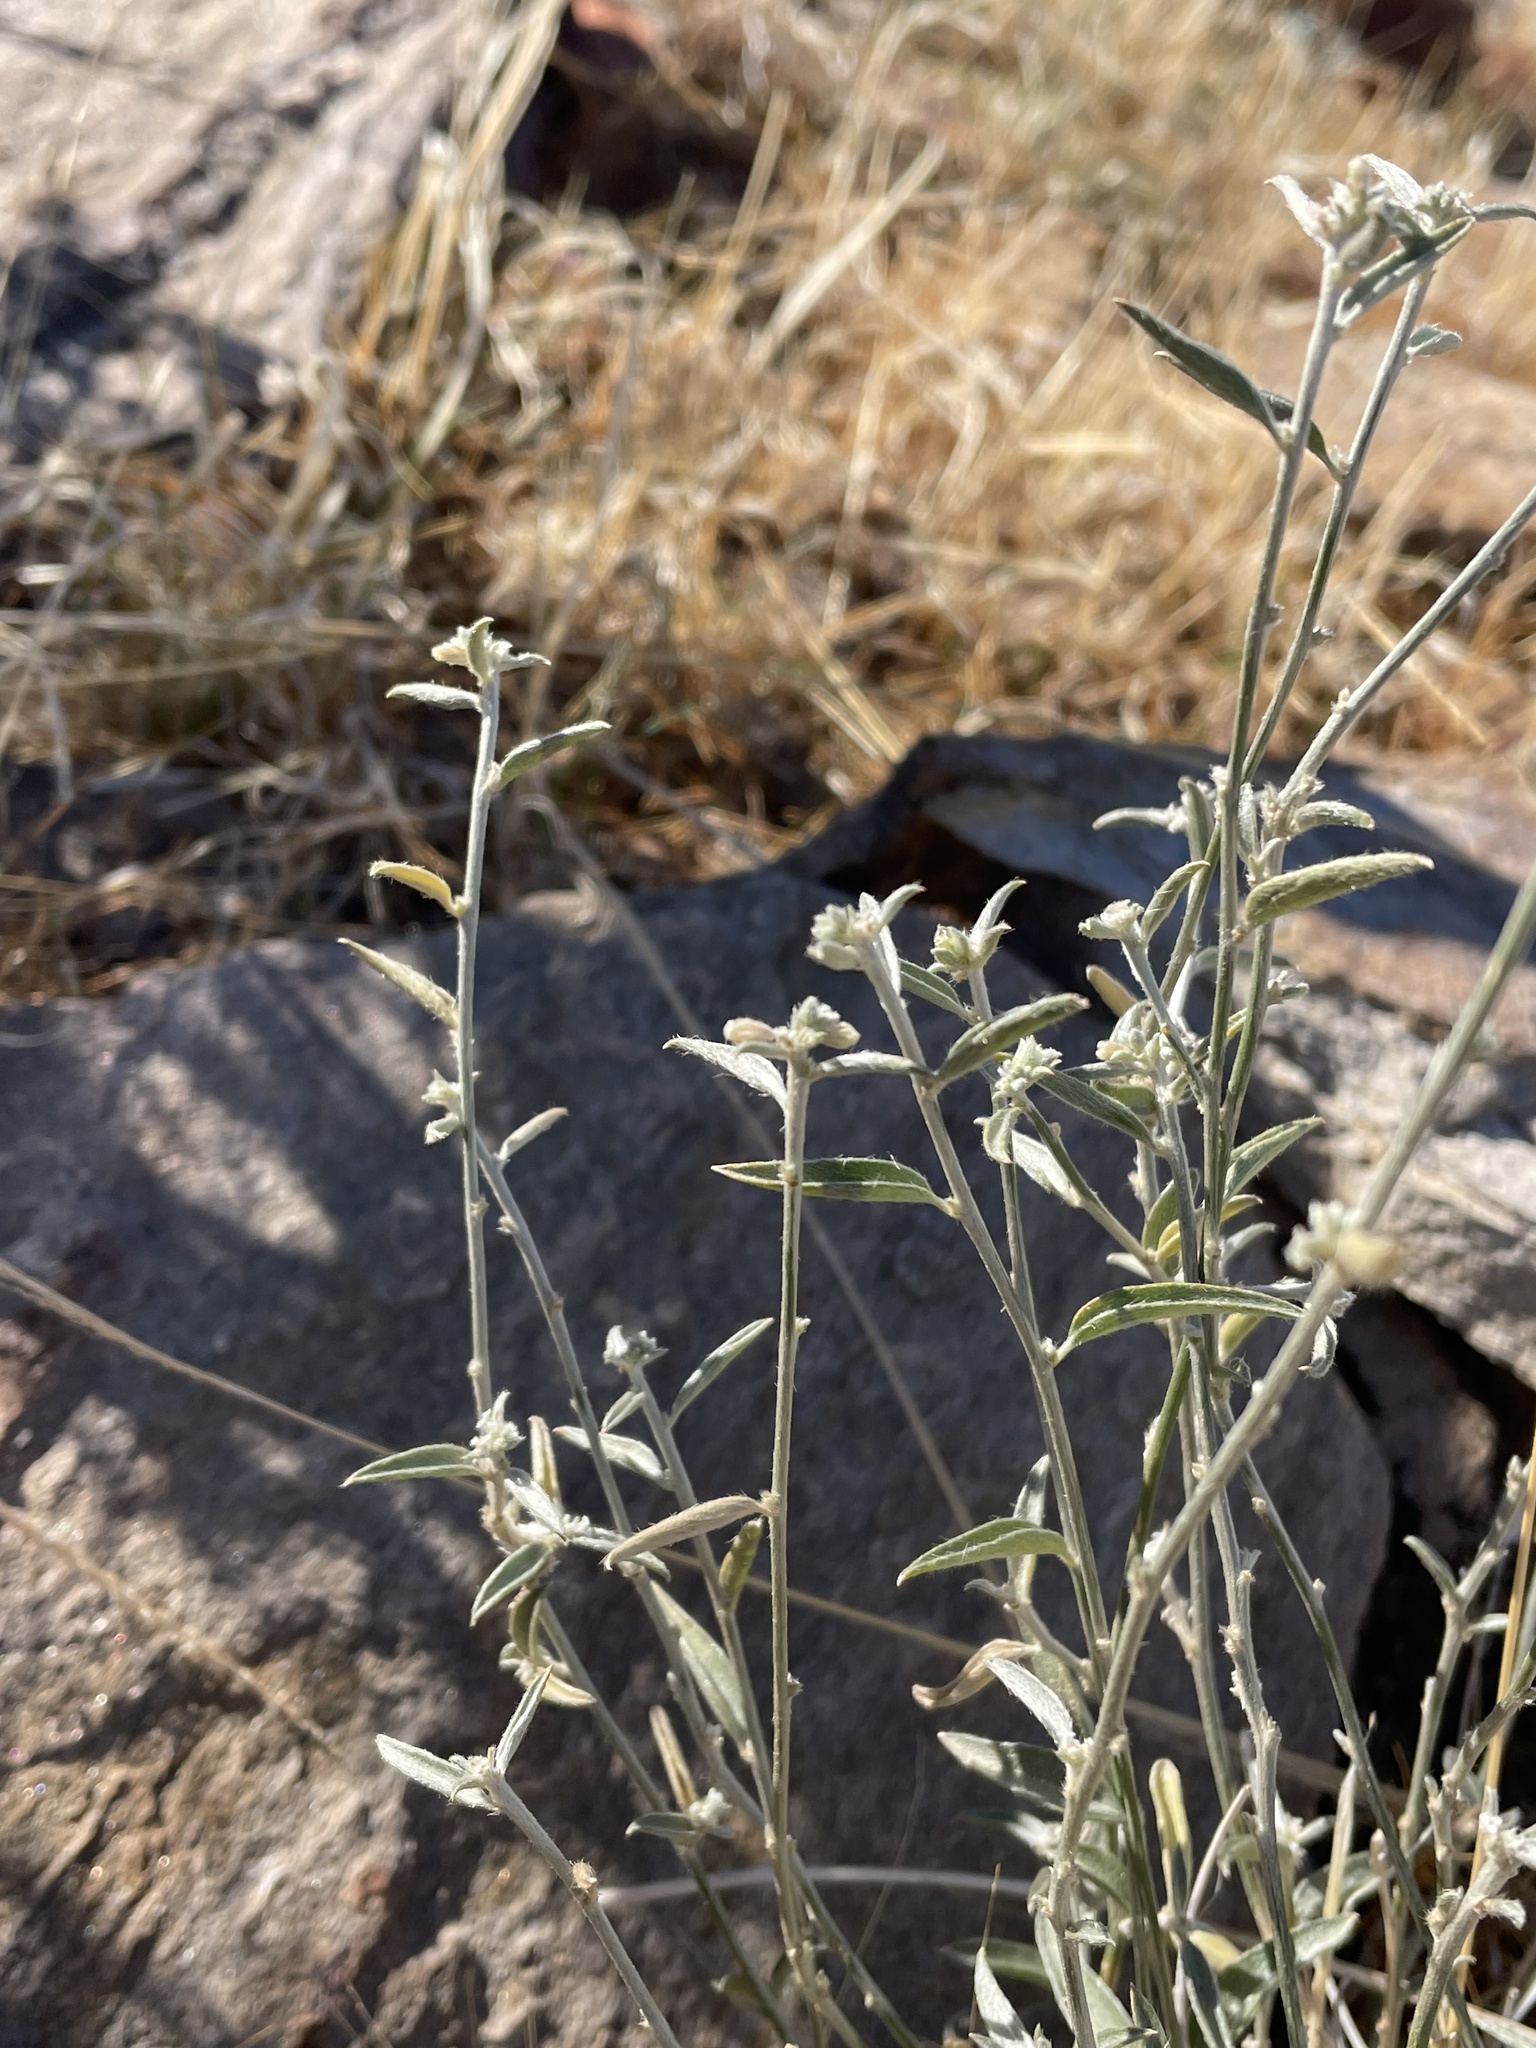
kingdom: Plantae
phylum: Tracheophyta
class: Magnoliopsida
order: Malpighiales
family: Euphorbiaceae
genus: Ditaxis
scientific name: Ditaxis lanceolata
